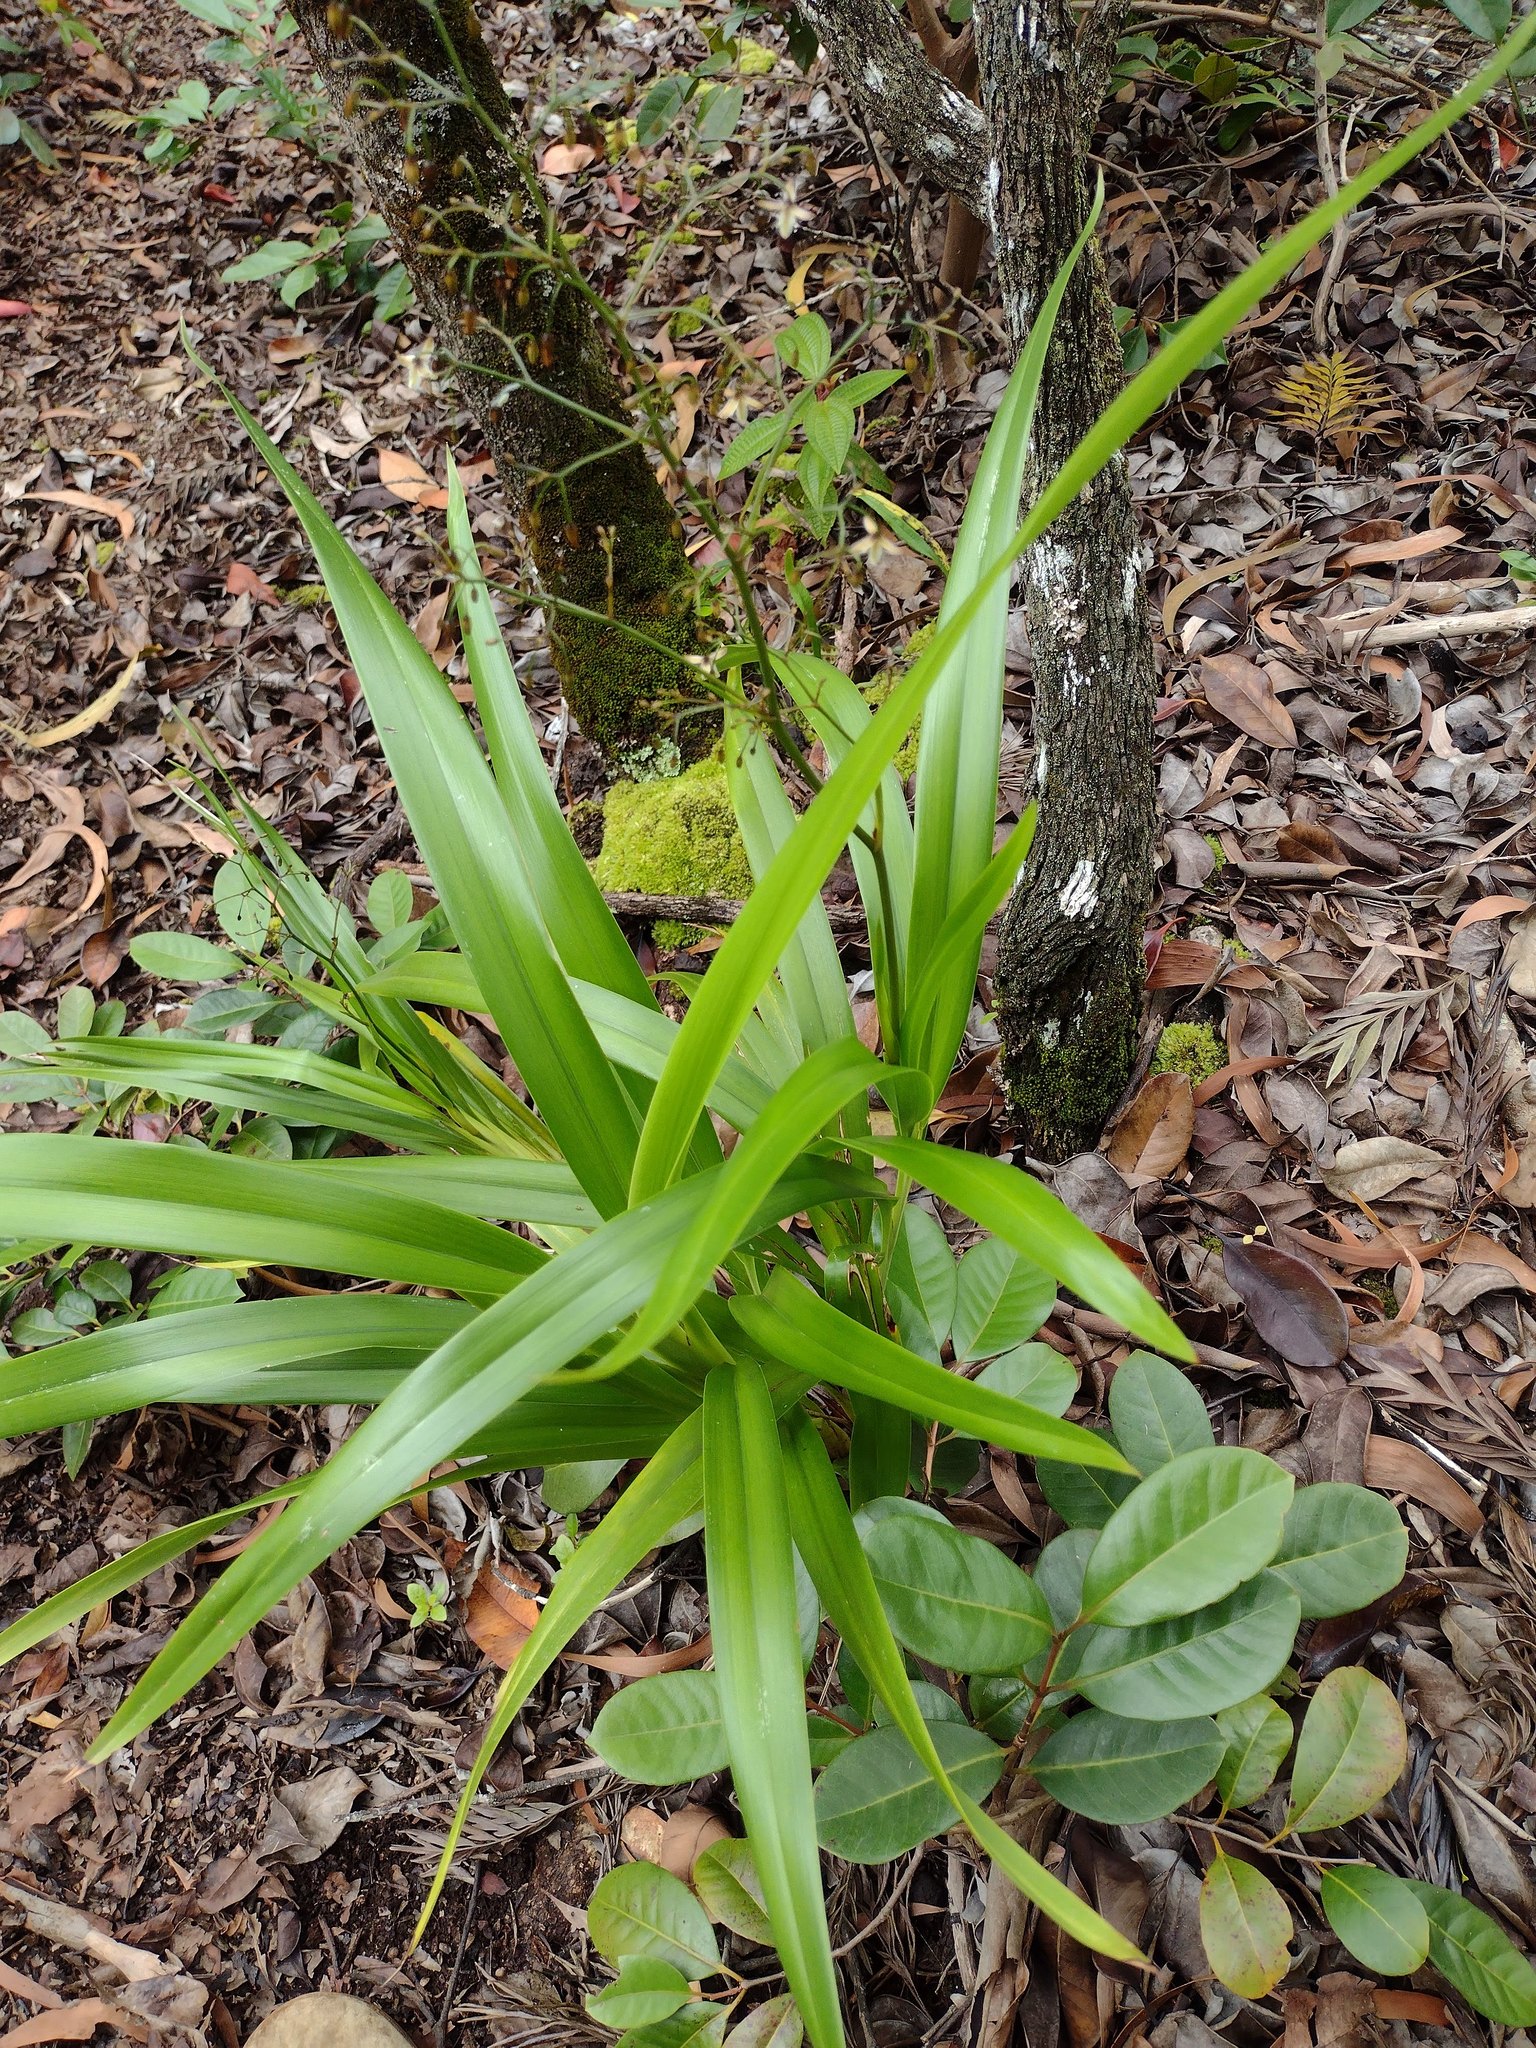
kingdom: Plantae
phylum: Tracheophyta
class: Liliopsida
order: Asparagales
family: Asphodelaceae
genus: Dianella
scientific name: Dianella sandwicensis
